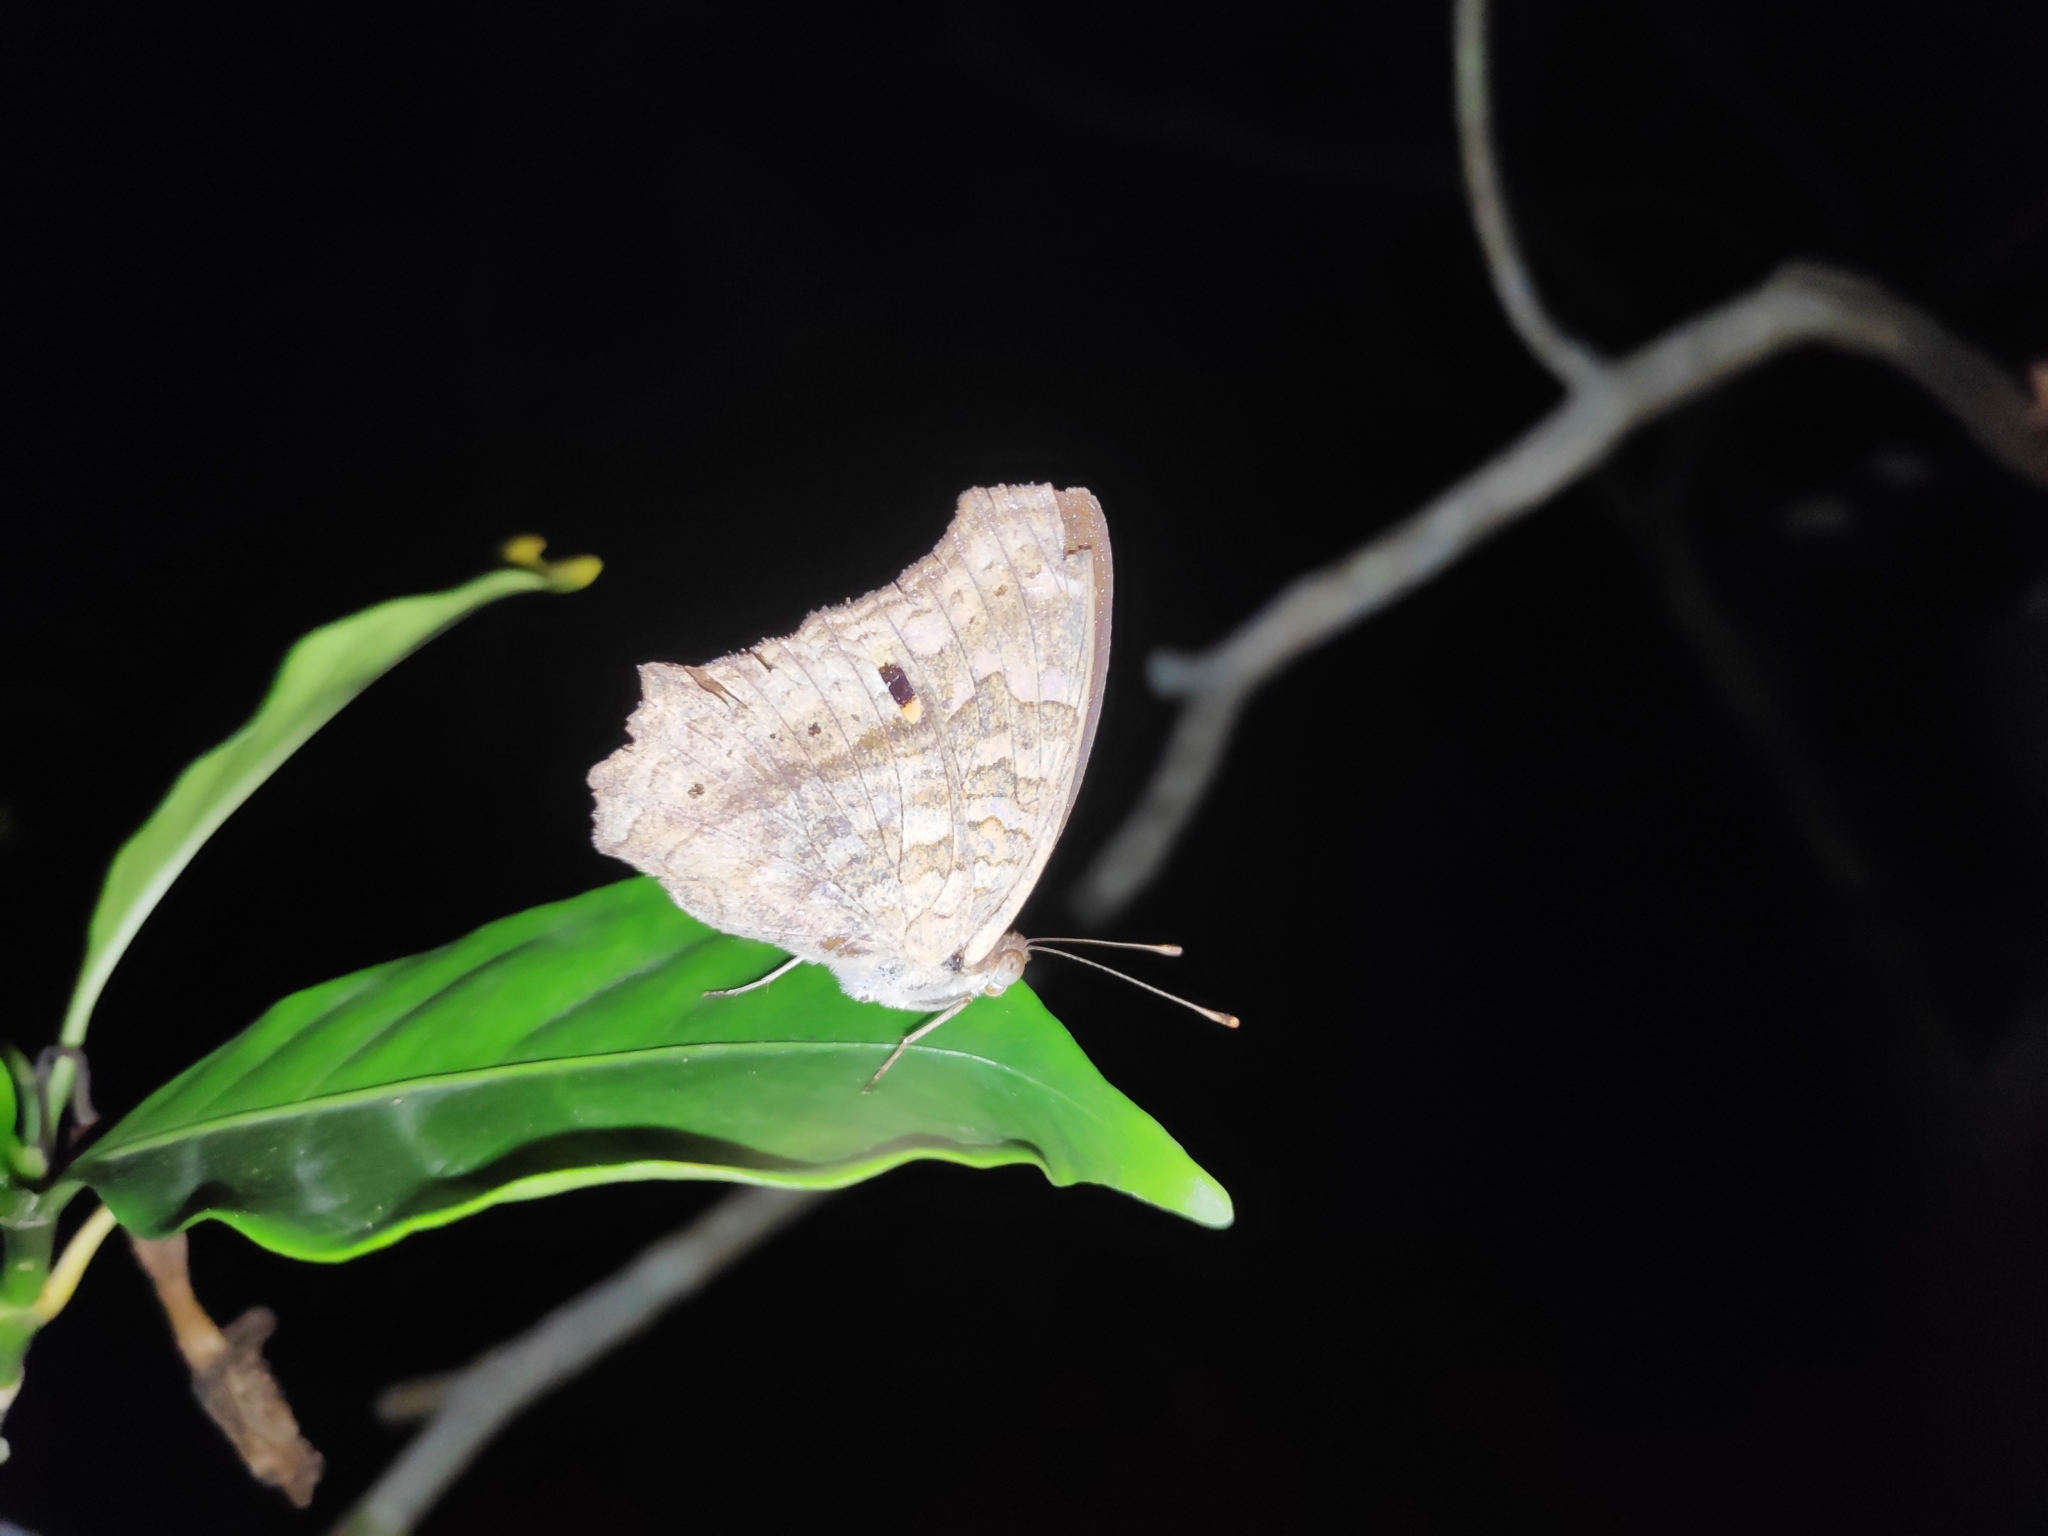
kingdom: Animalia
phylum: Arthropoda
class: Insecta
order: Lepidoptera
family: Nymphalidae
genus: Junonia
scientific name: Junonia lemonias
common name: Lemon pansy
